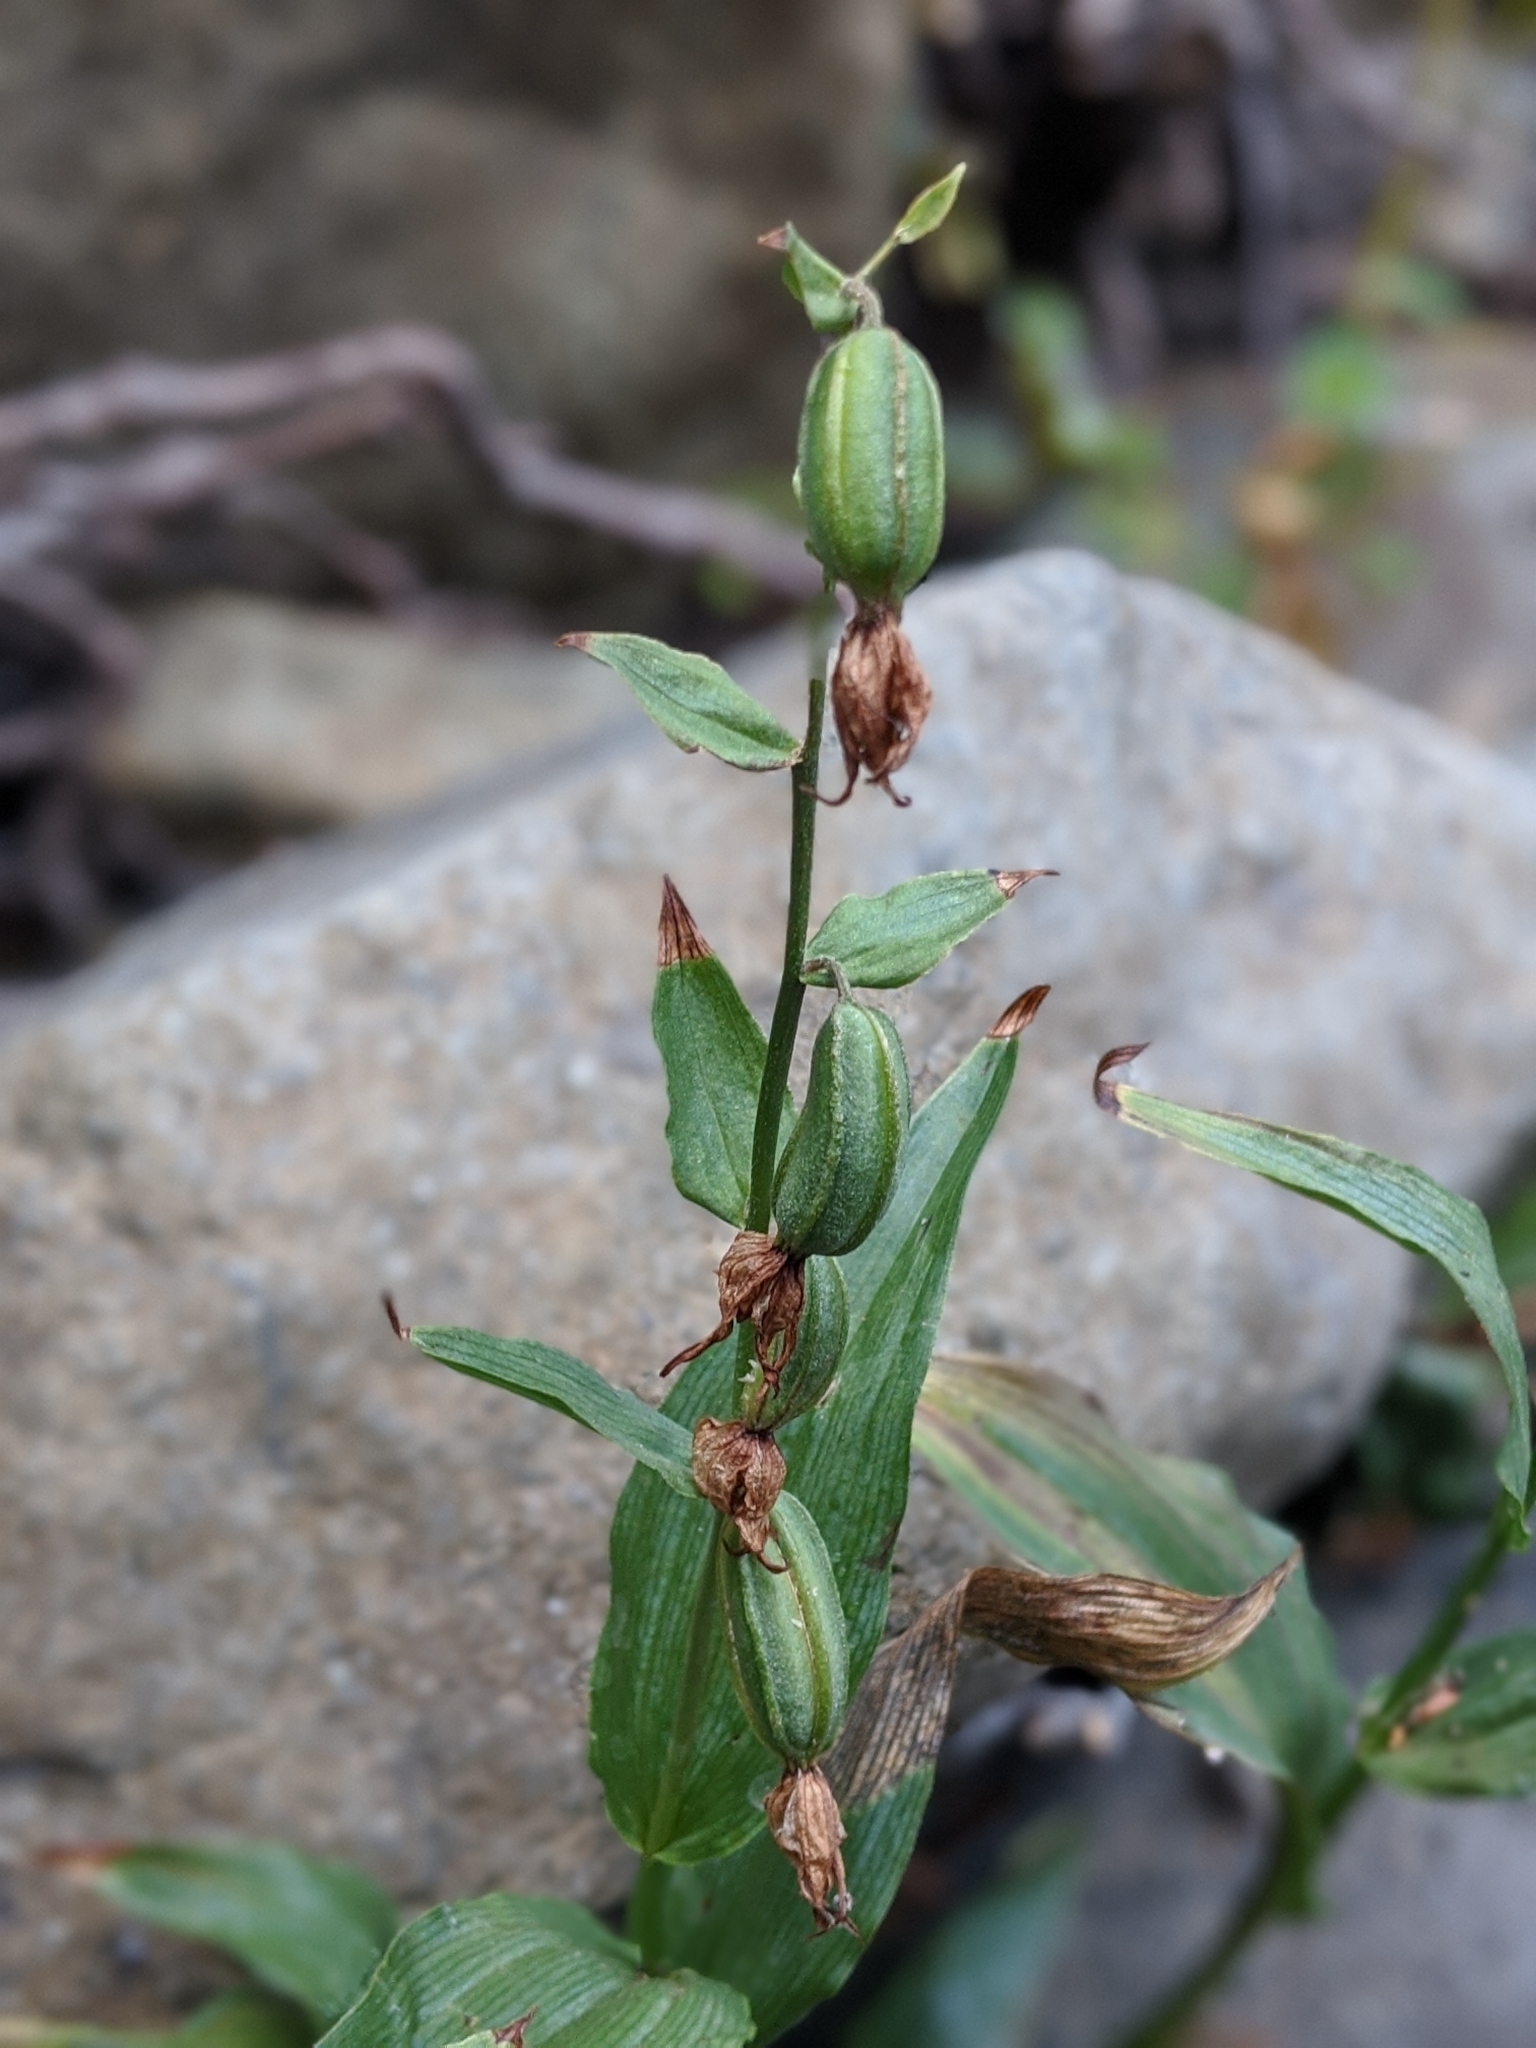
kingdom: Plantae
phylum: Tracheophyta
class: Liliopsida
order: Asparagales
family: Orchidaceae
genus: Epipactis
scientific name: Epipactis gigantea
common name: Chatterbox
